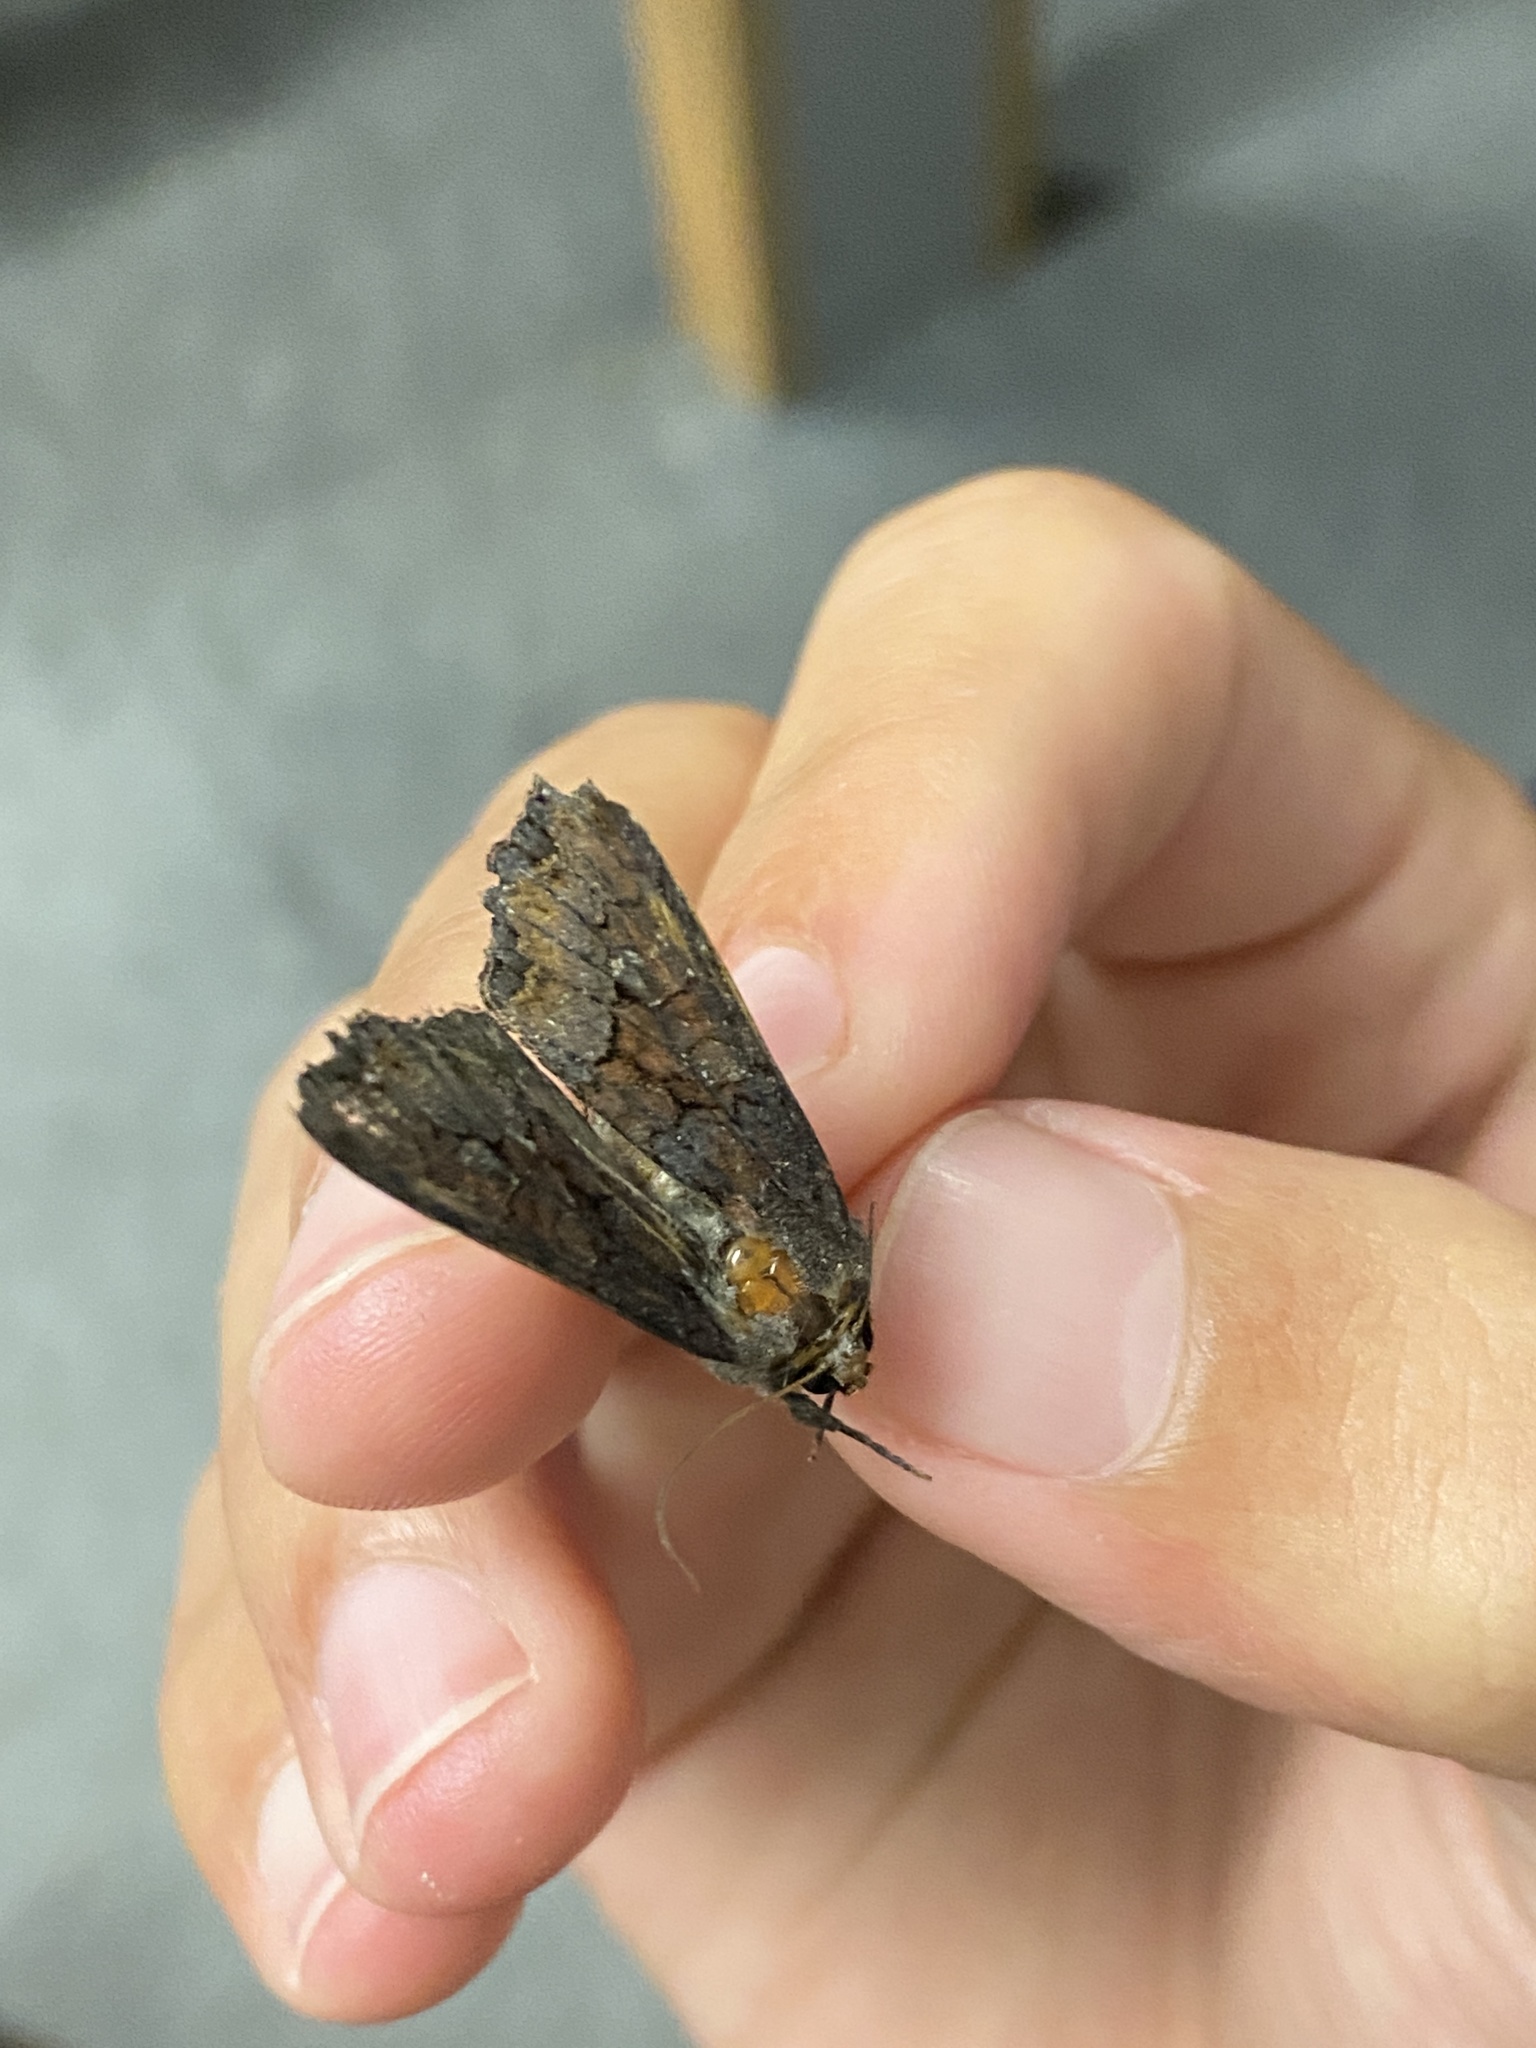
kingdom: Animalia
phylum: Arthropoda
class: Insecta
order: Lepidoptera
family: Noctuidae
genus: Apamea
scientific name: Apamea amputatrix
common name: Yellow-headed cutworm moth
